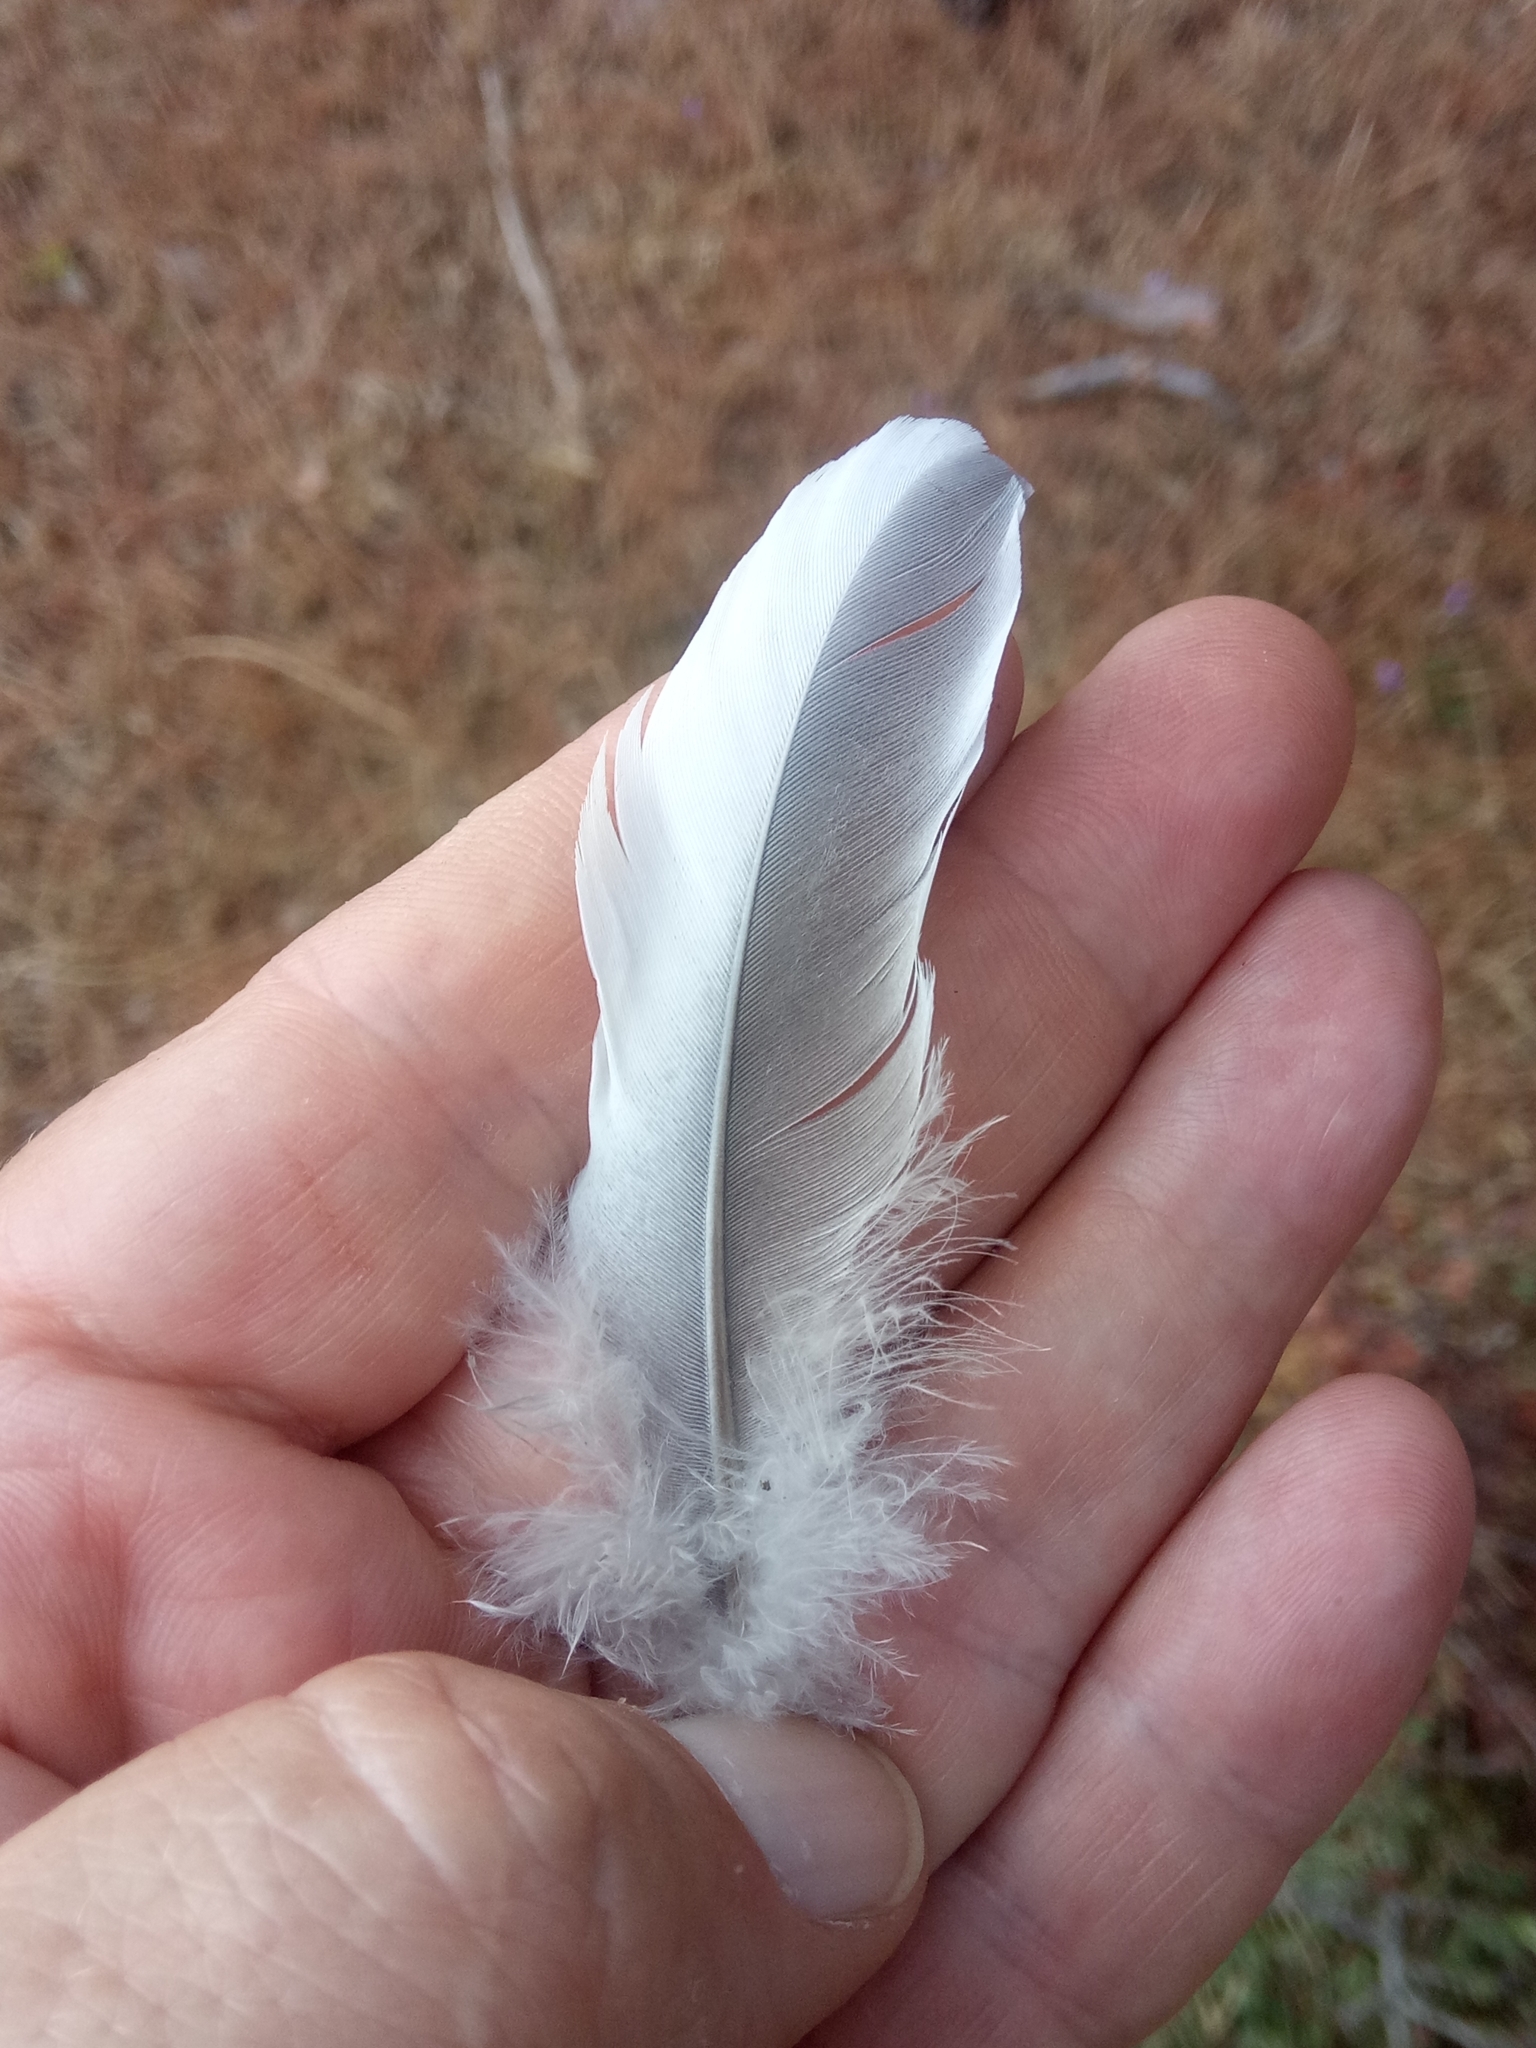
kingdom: Animalia
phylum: Chordata
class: Aves
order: Columbiformes
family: Columbidae
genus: Columba
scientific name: Columba palumbus
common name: Common wood pigeon
